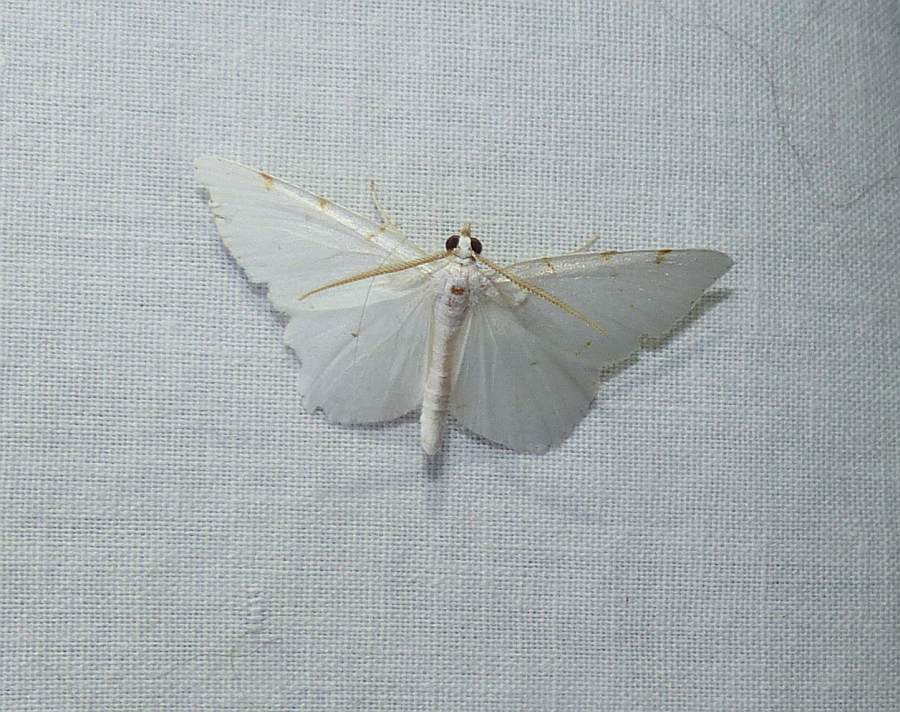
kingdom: Animalia
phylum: Arthropoda
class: Insecta
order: Lepidoptera
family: Geometridae
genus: Macaria
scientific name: Macaria pustularia
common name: Lesser maple spanworm moth
